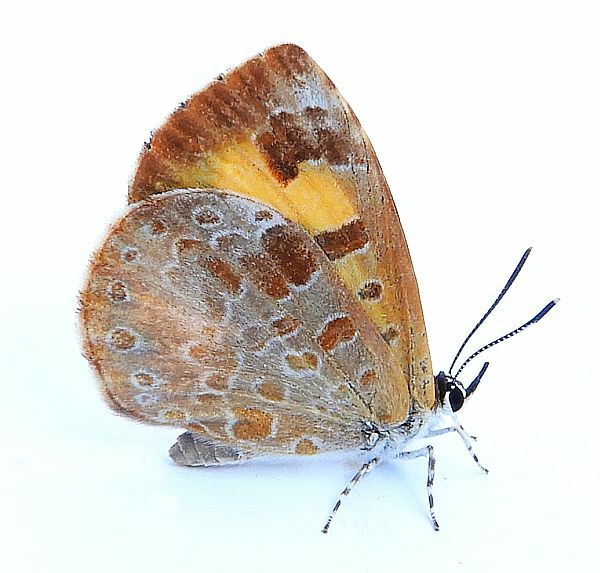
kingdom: Animalia
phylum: Arthropoda
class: Insecta
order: Lepidoptera
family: Lycaenidae
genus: Feniseca
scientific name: Feniseca tarquinius
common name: Harvester
